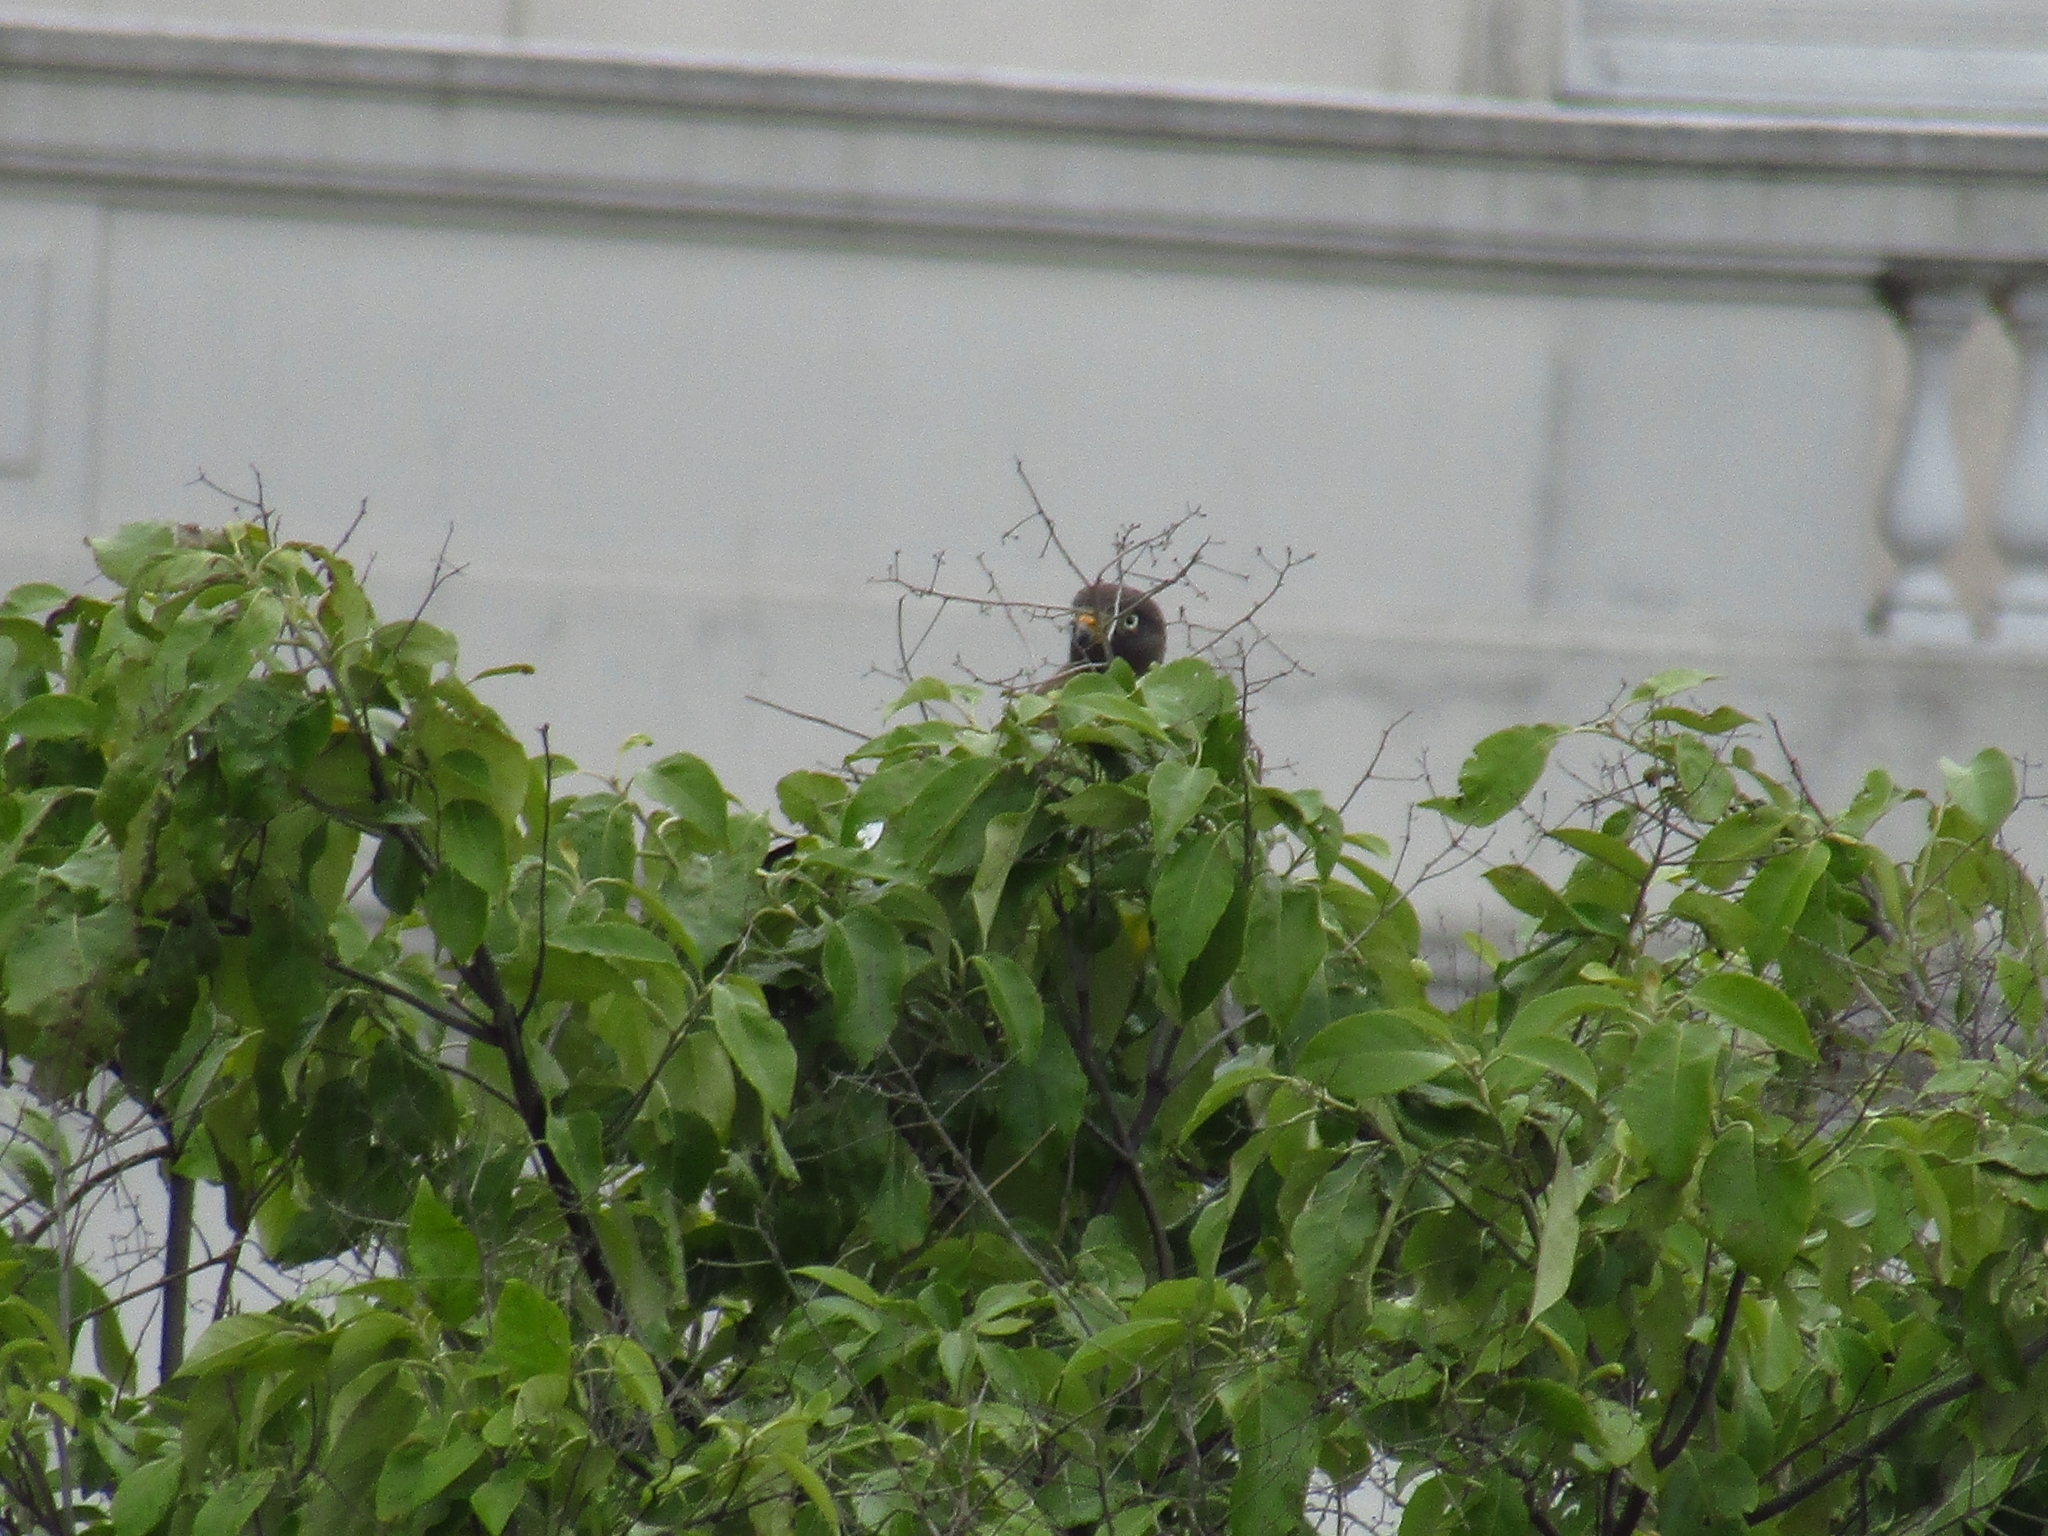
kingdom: Animalia
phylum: Chordata
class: Aves
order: Accipitriformes
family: Accipitridae
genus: Rupornis
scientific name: Rupornis magnirostris
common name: Roadside hawk
